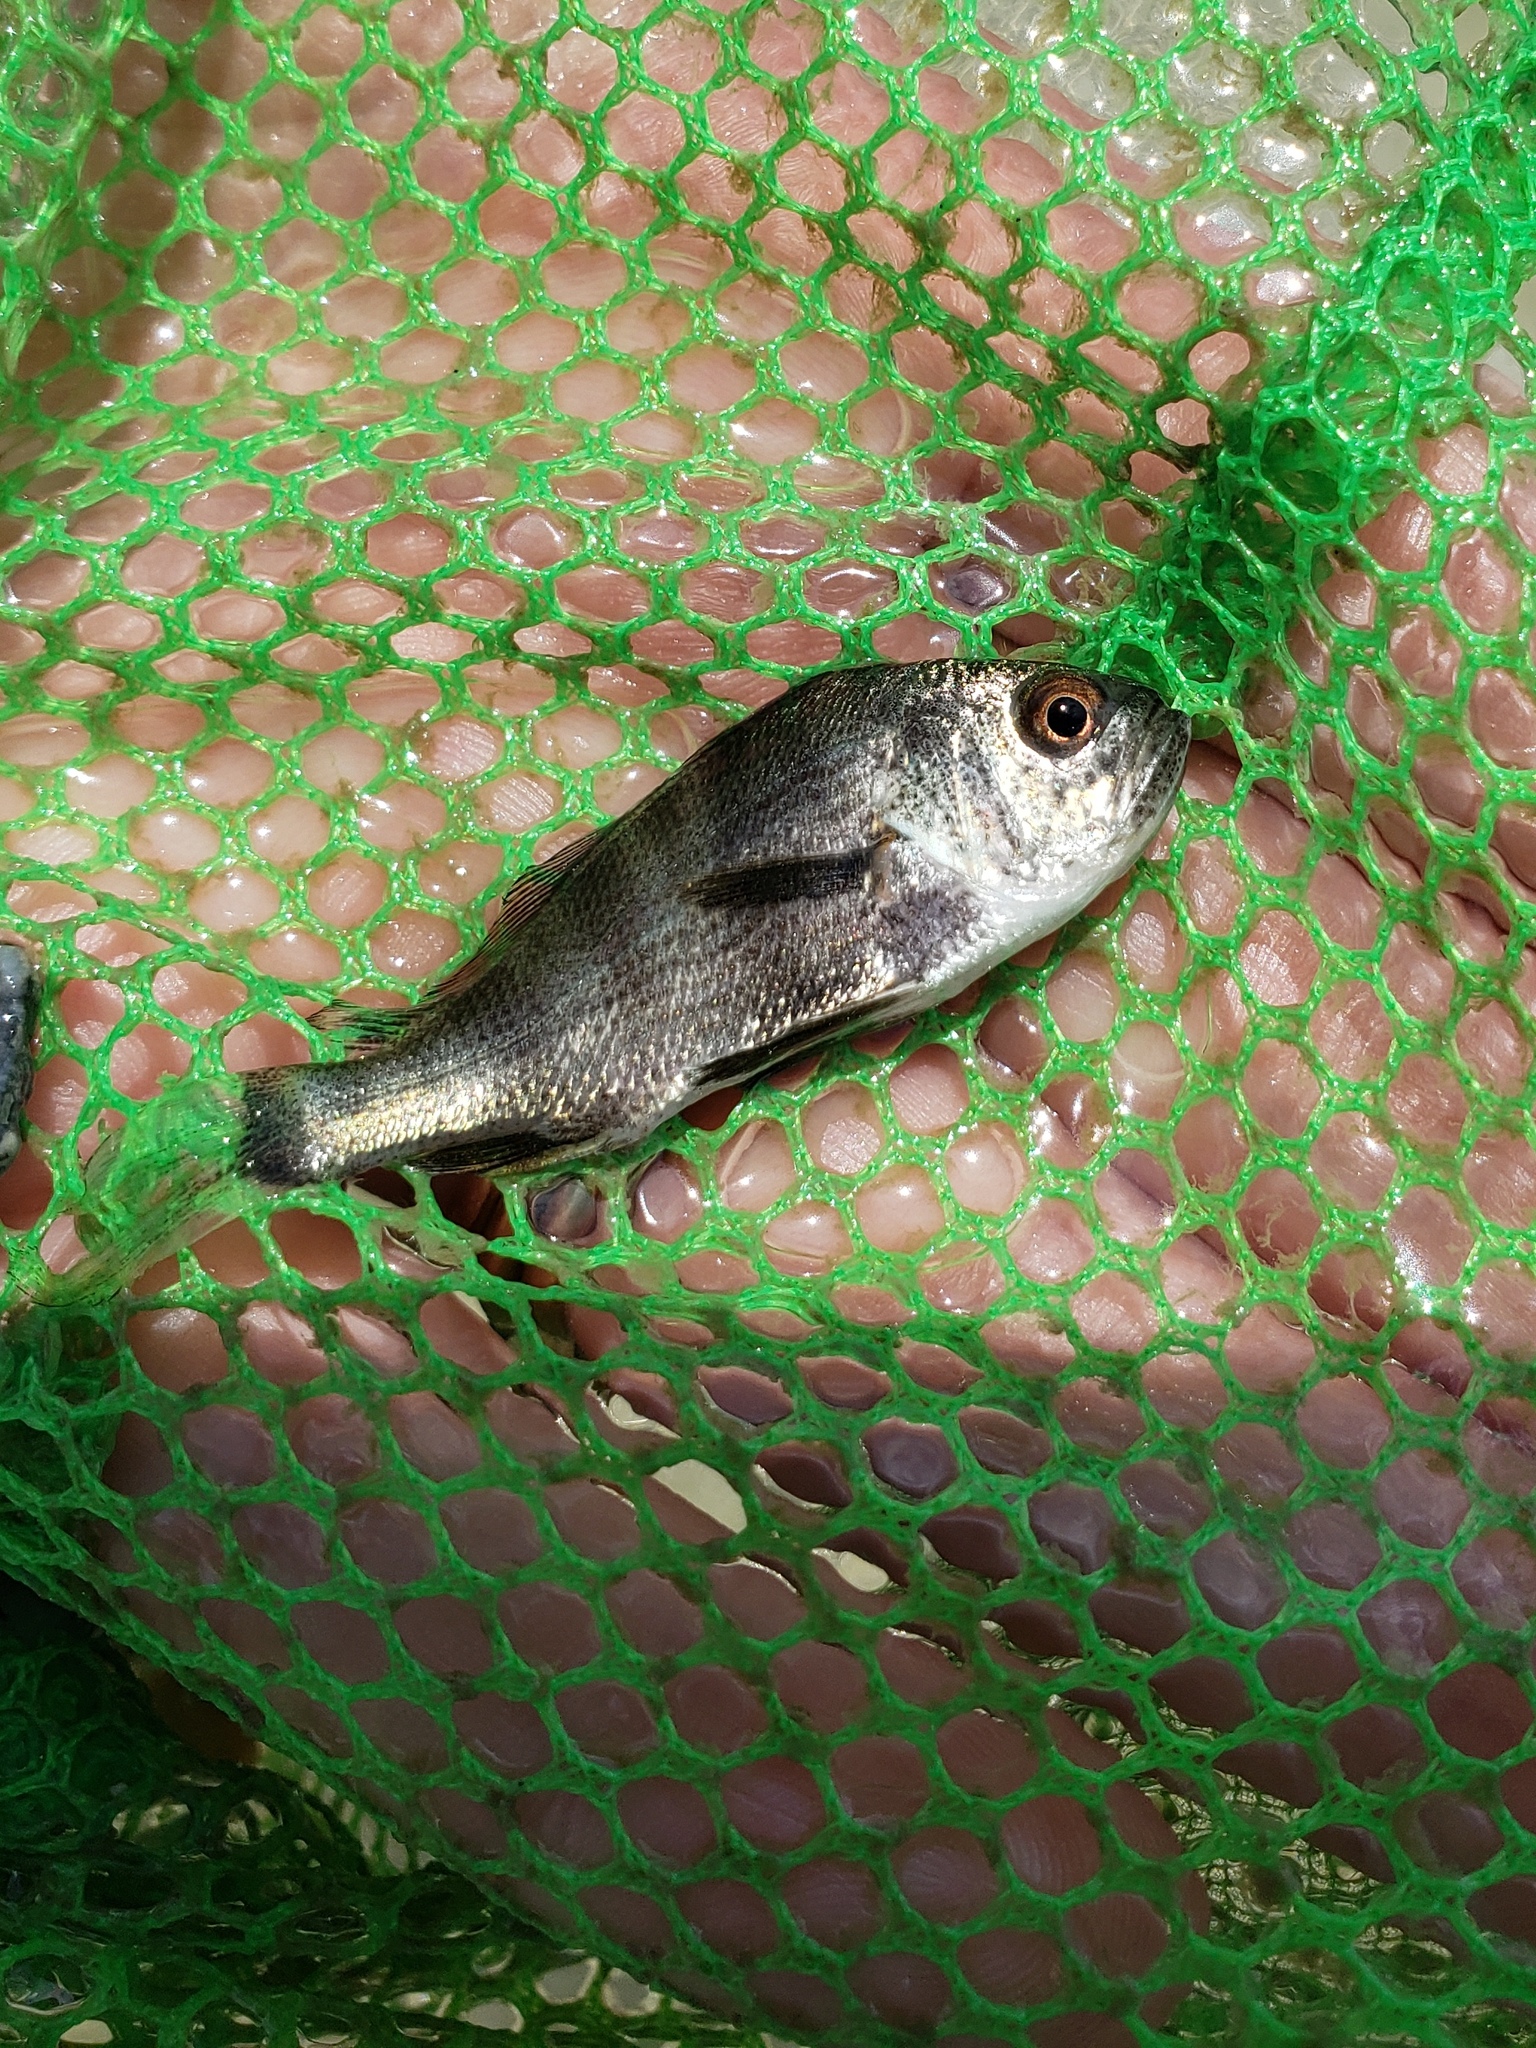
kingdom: Animalia
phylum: Chordata
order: Perciformes
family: Sciaenidae
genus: Pogonias
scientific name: Pogonias cromis
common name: Black drum
